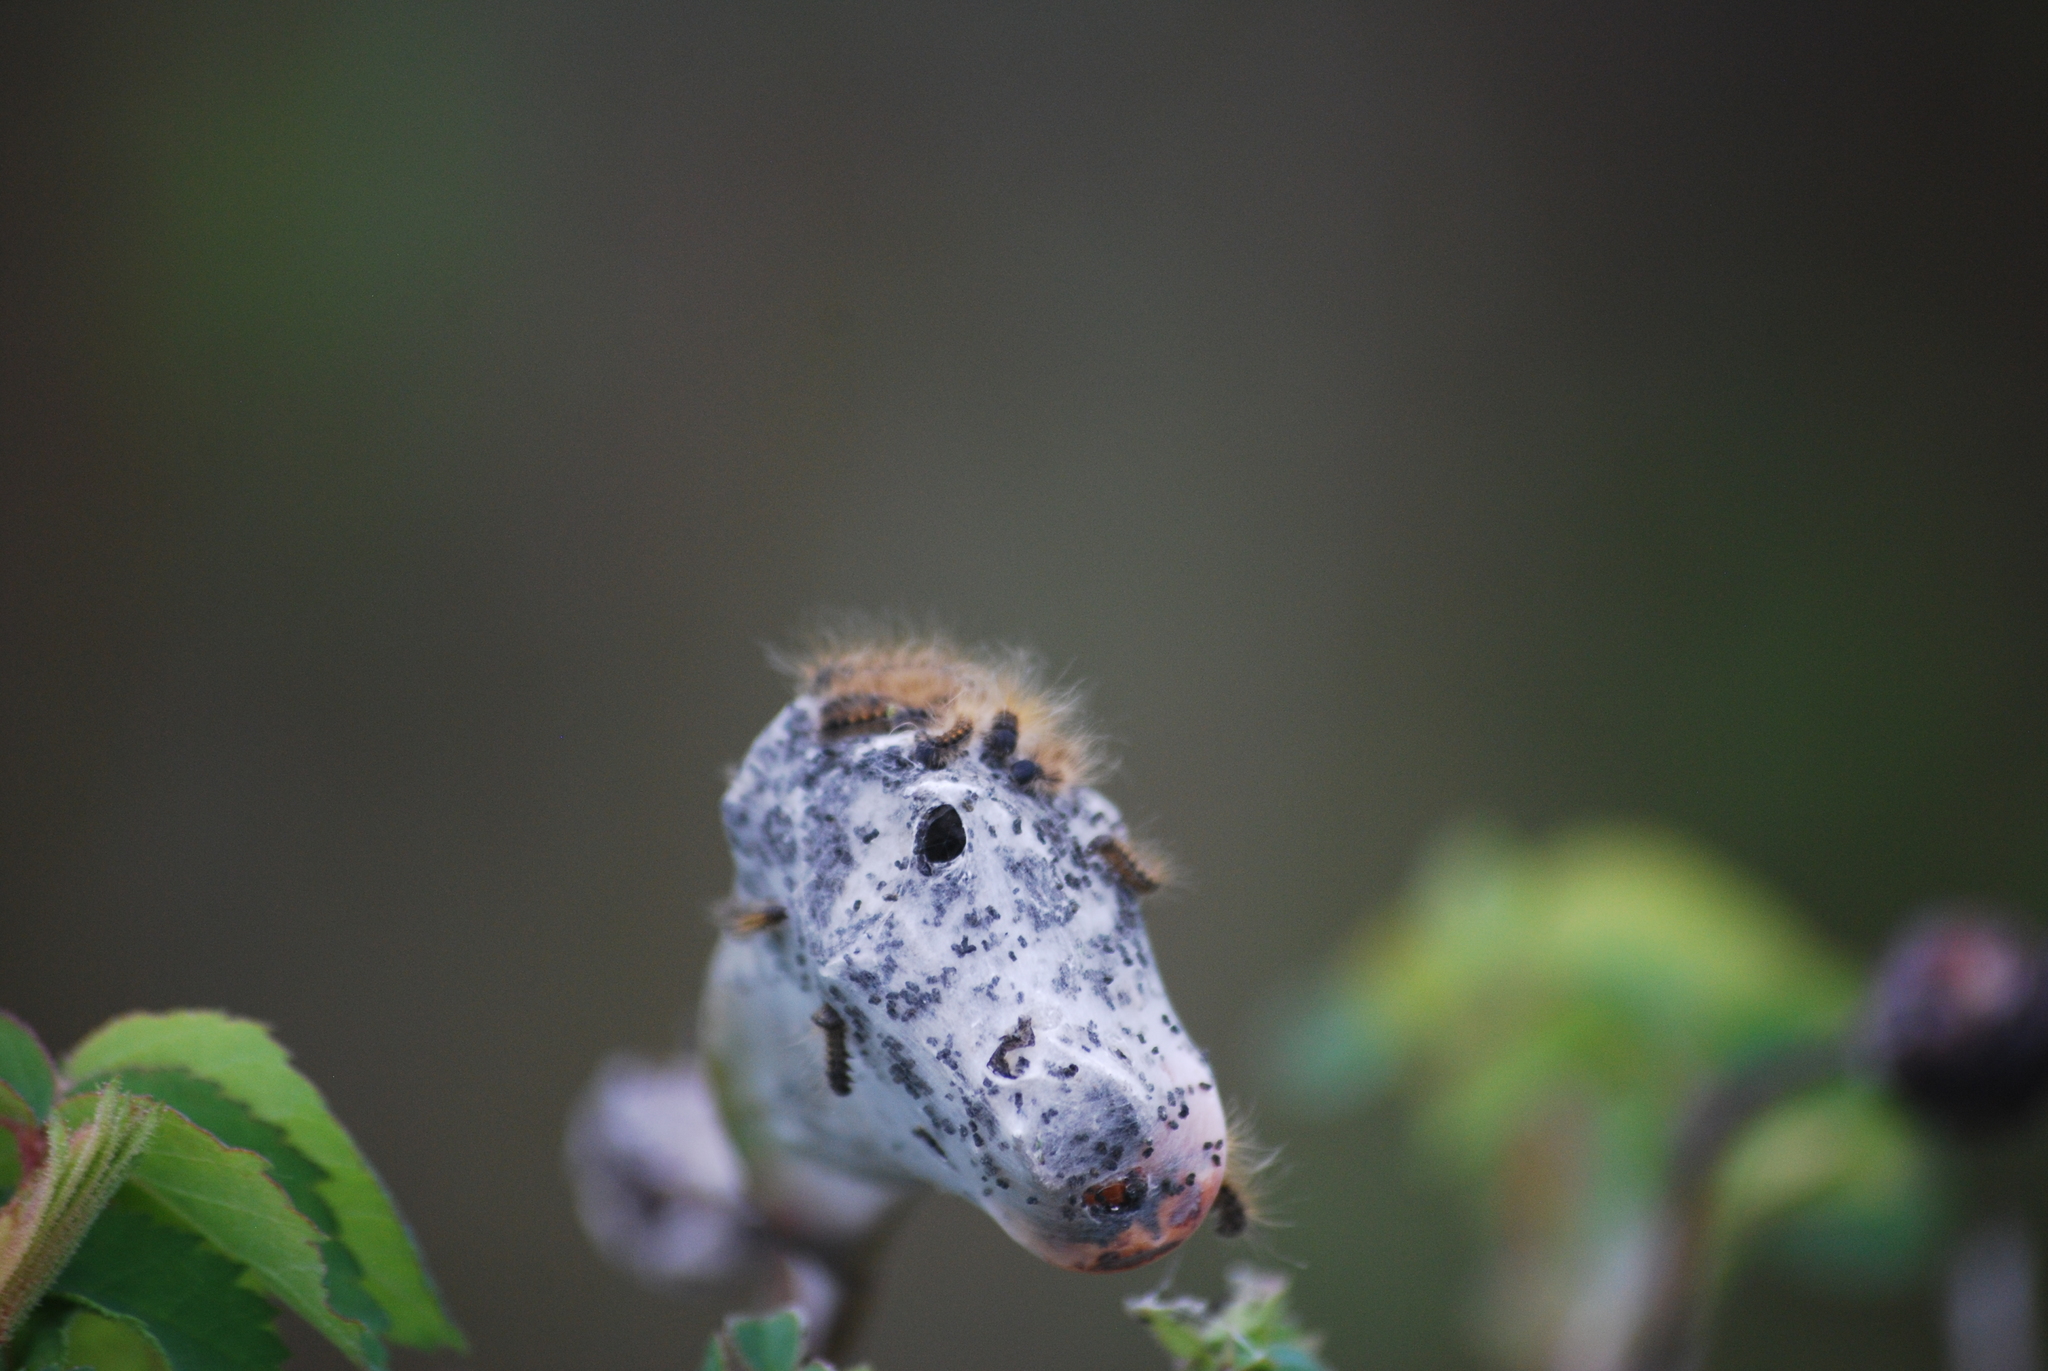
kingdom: Animalia
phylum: Arthropoda
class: Insecta
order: Lepidoptera
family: Lasiocampidae
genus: Malacosoma
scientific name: Malacosoma californica
